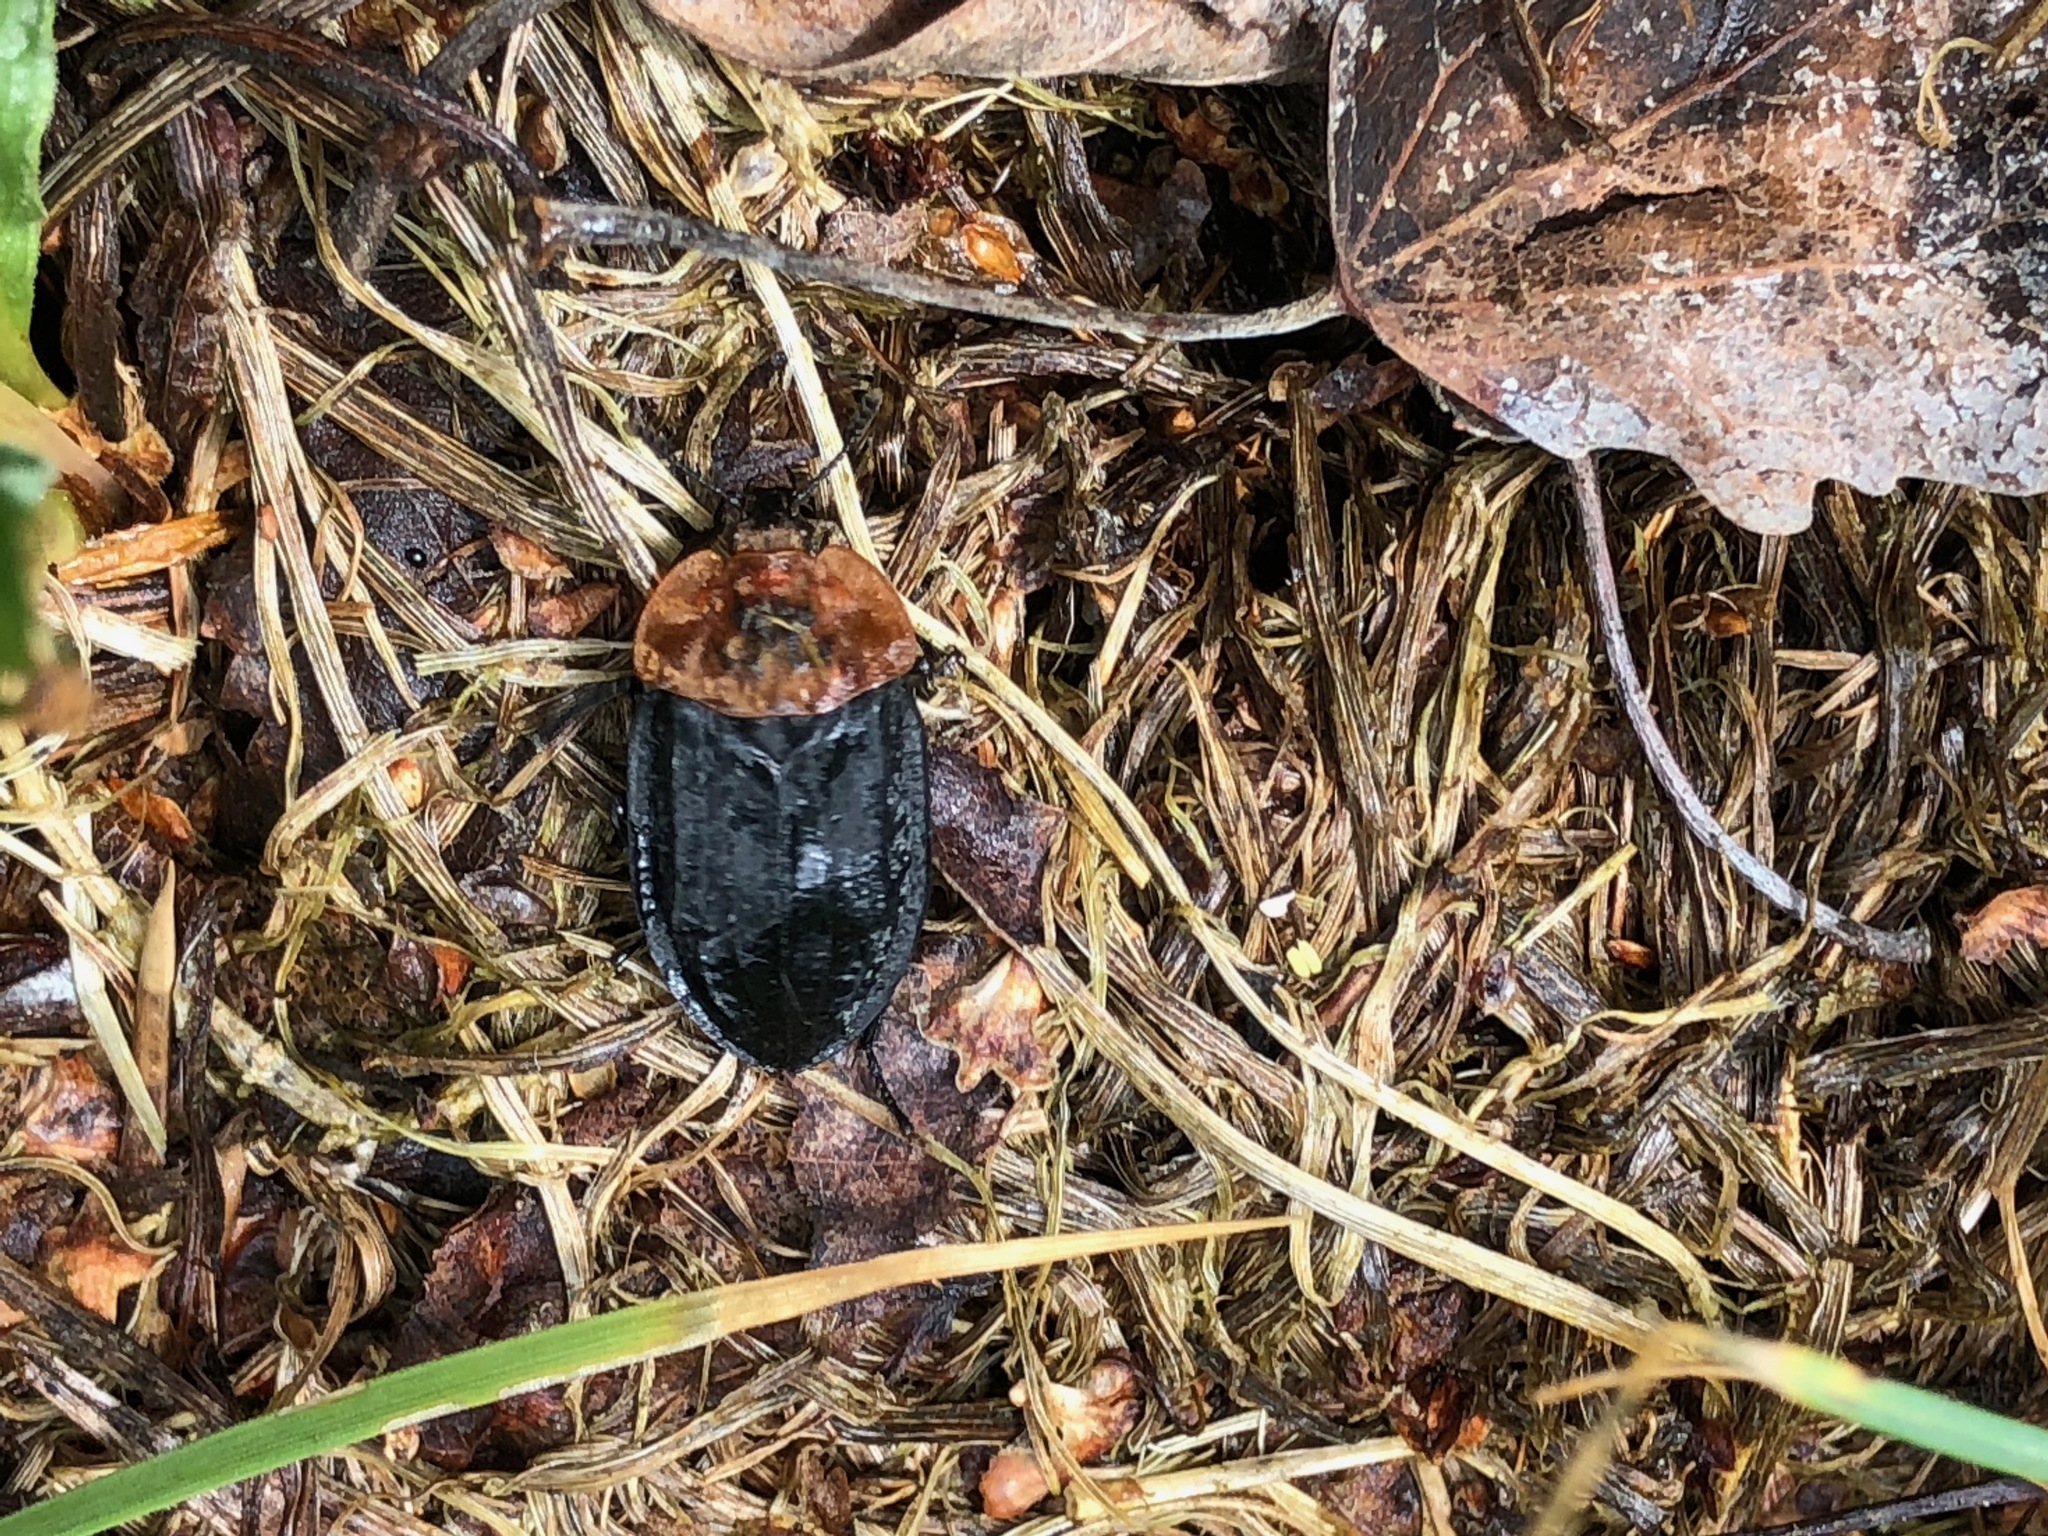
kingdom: Animalia
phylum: Arthropoda
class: Insecta
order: Coleoptera
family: Staphylinidae
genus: Oiceoptoma
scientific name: Oiceoptoma thoracicum
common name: Red-breasted carrion beetle
